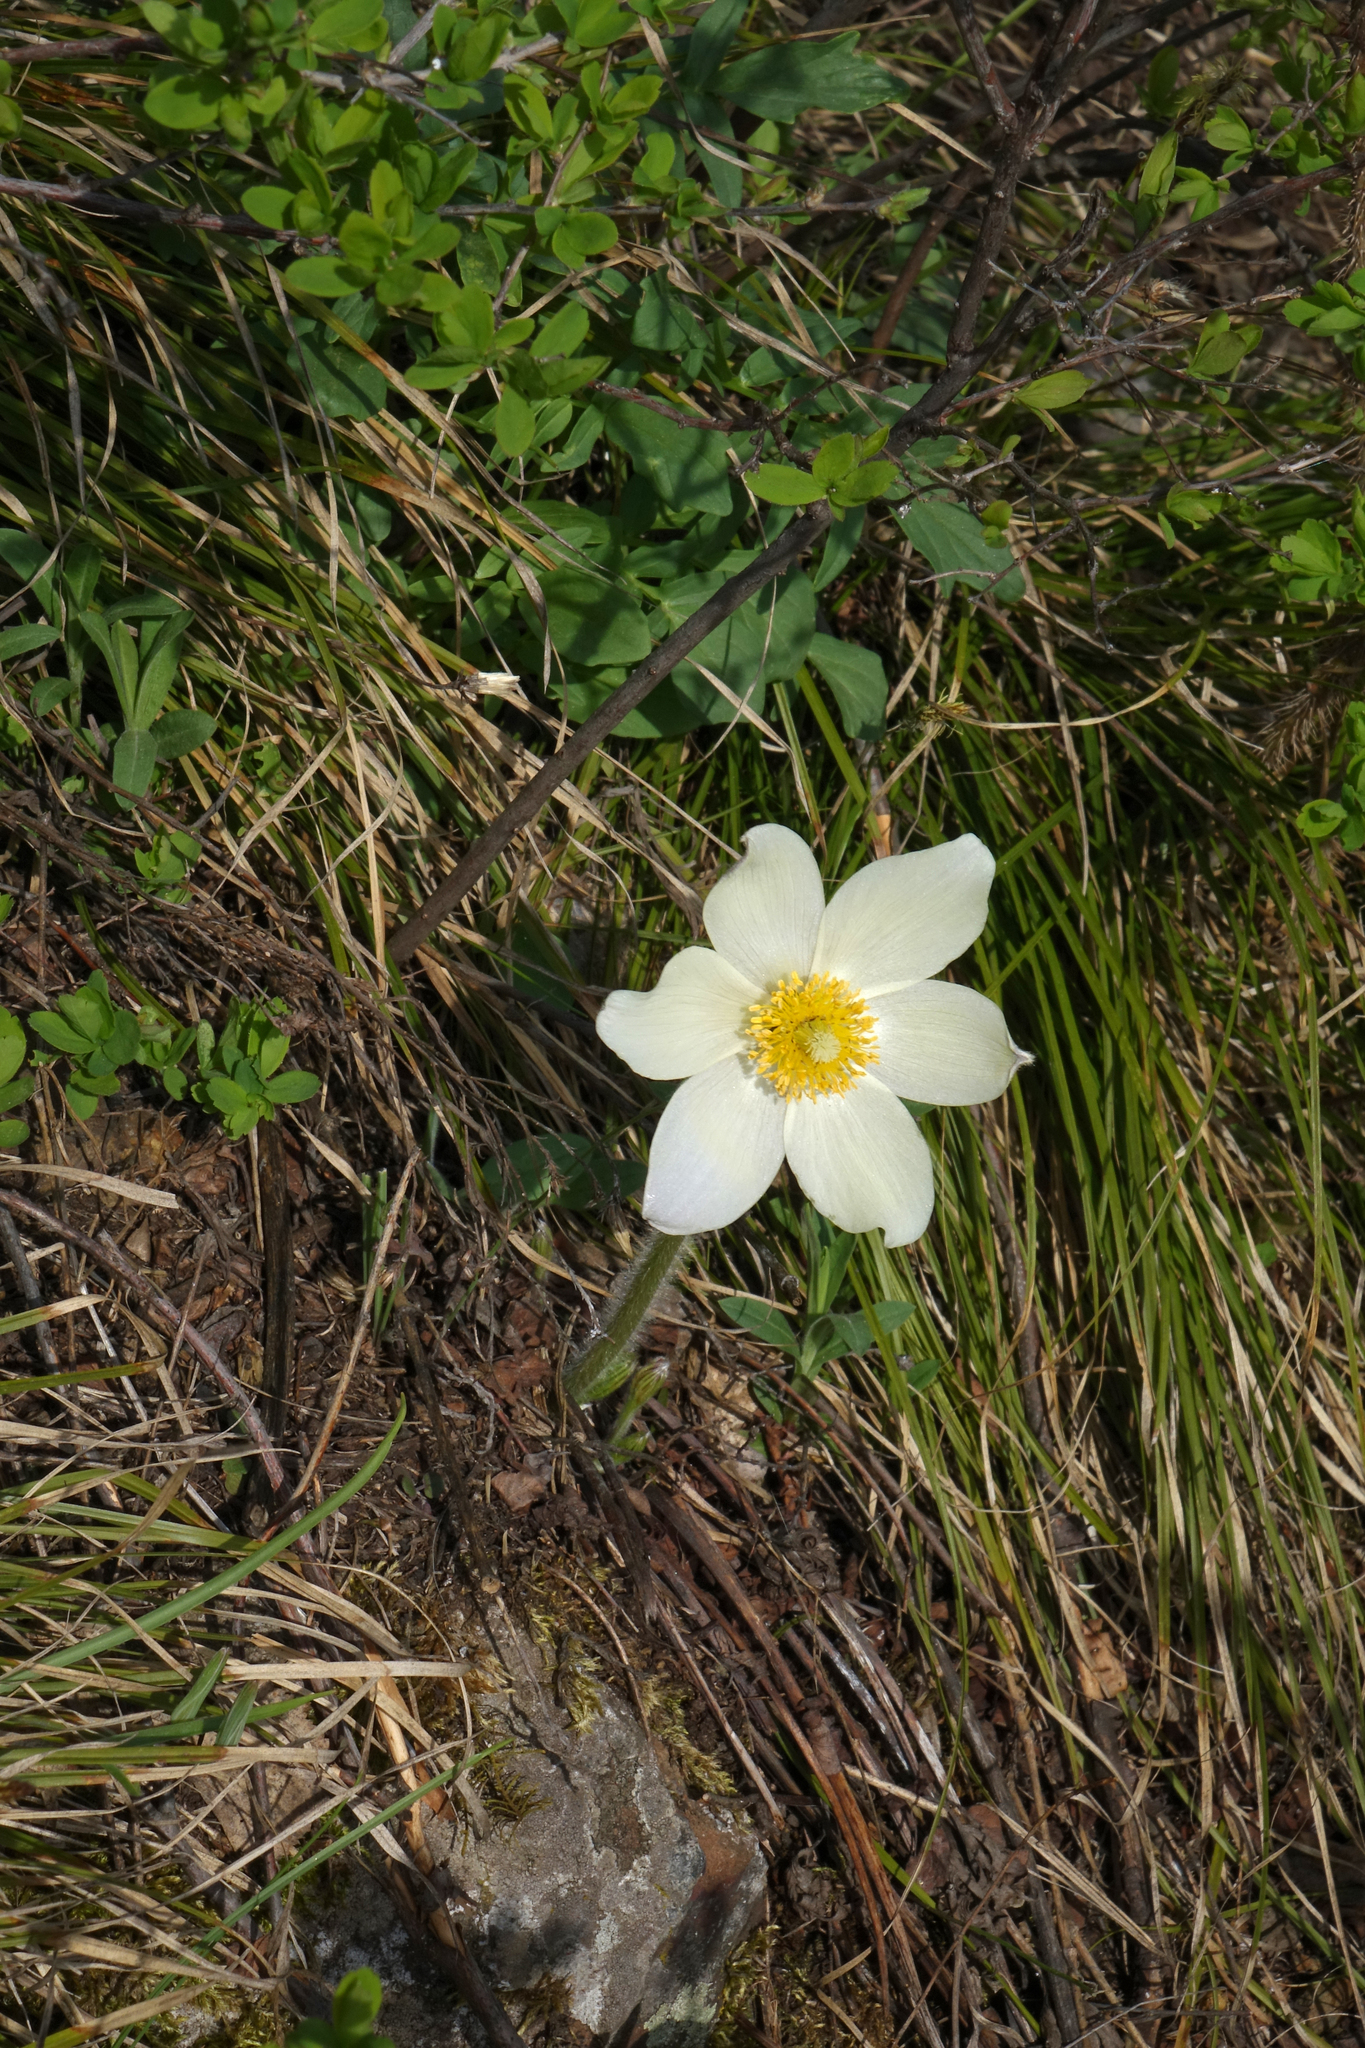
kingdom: Plantae
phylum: Tracheophyta
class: Magnoliopsida
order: Ranunculales
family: Ranunculaceae
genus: Pulsatilla
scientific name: Pulsatilla patens
